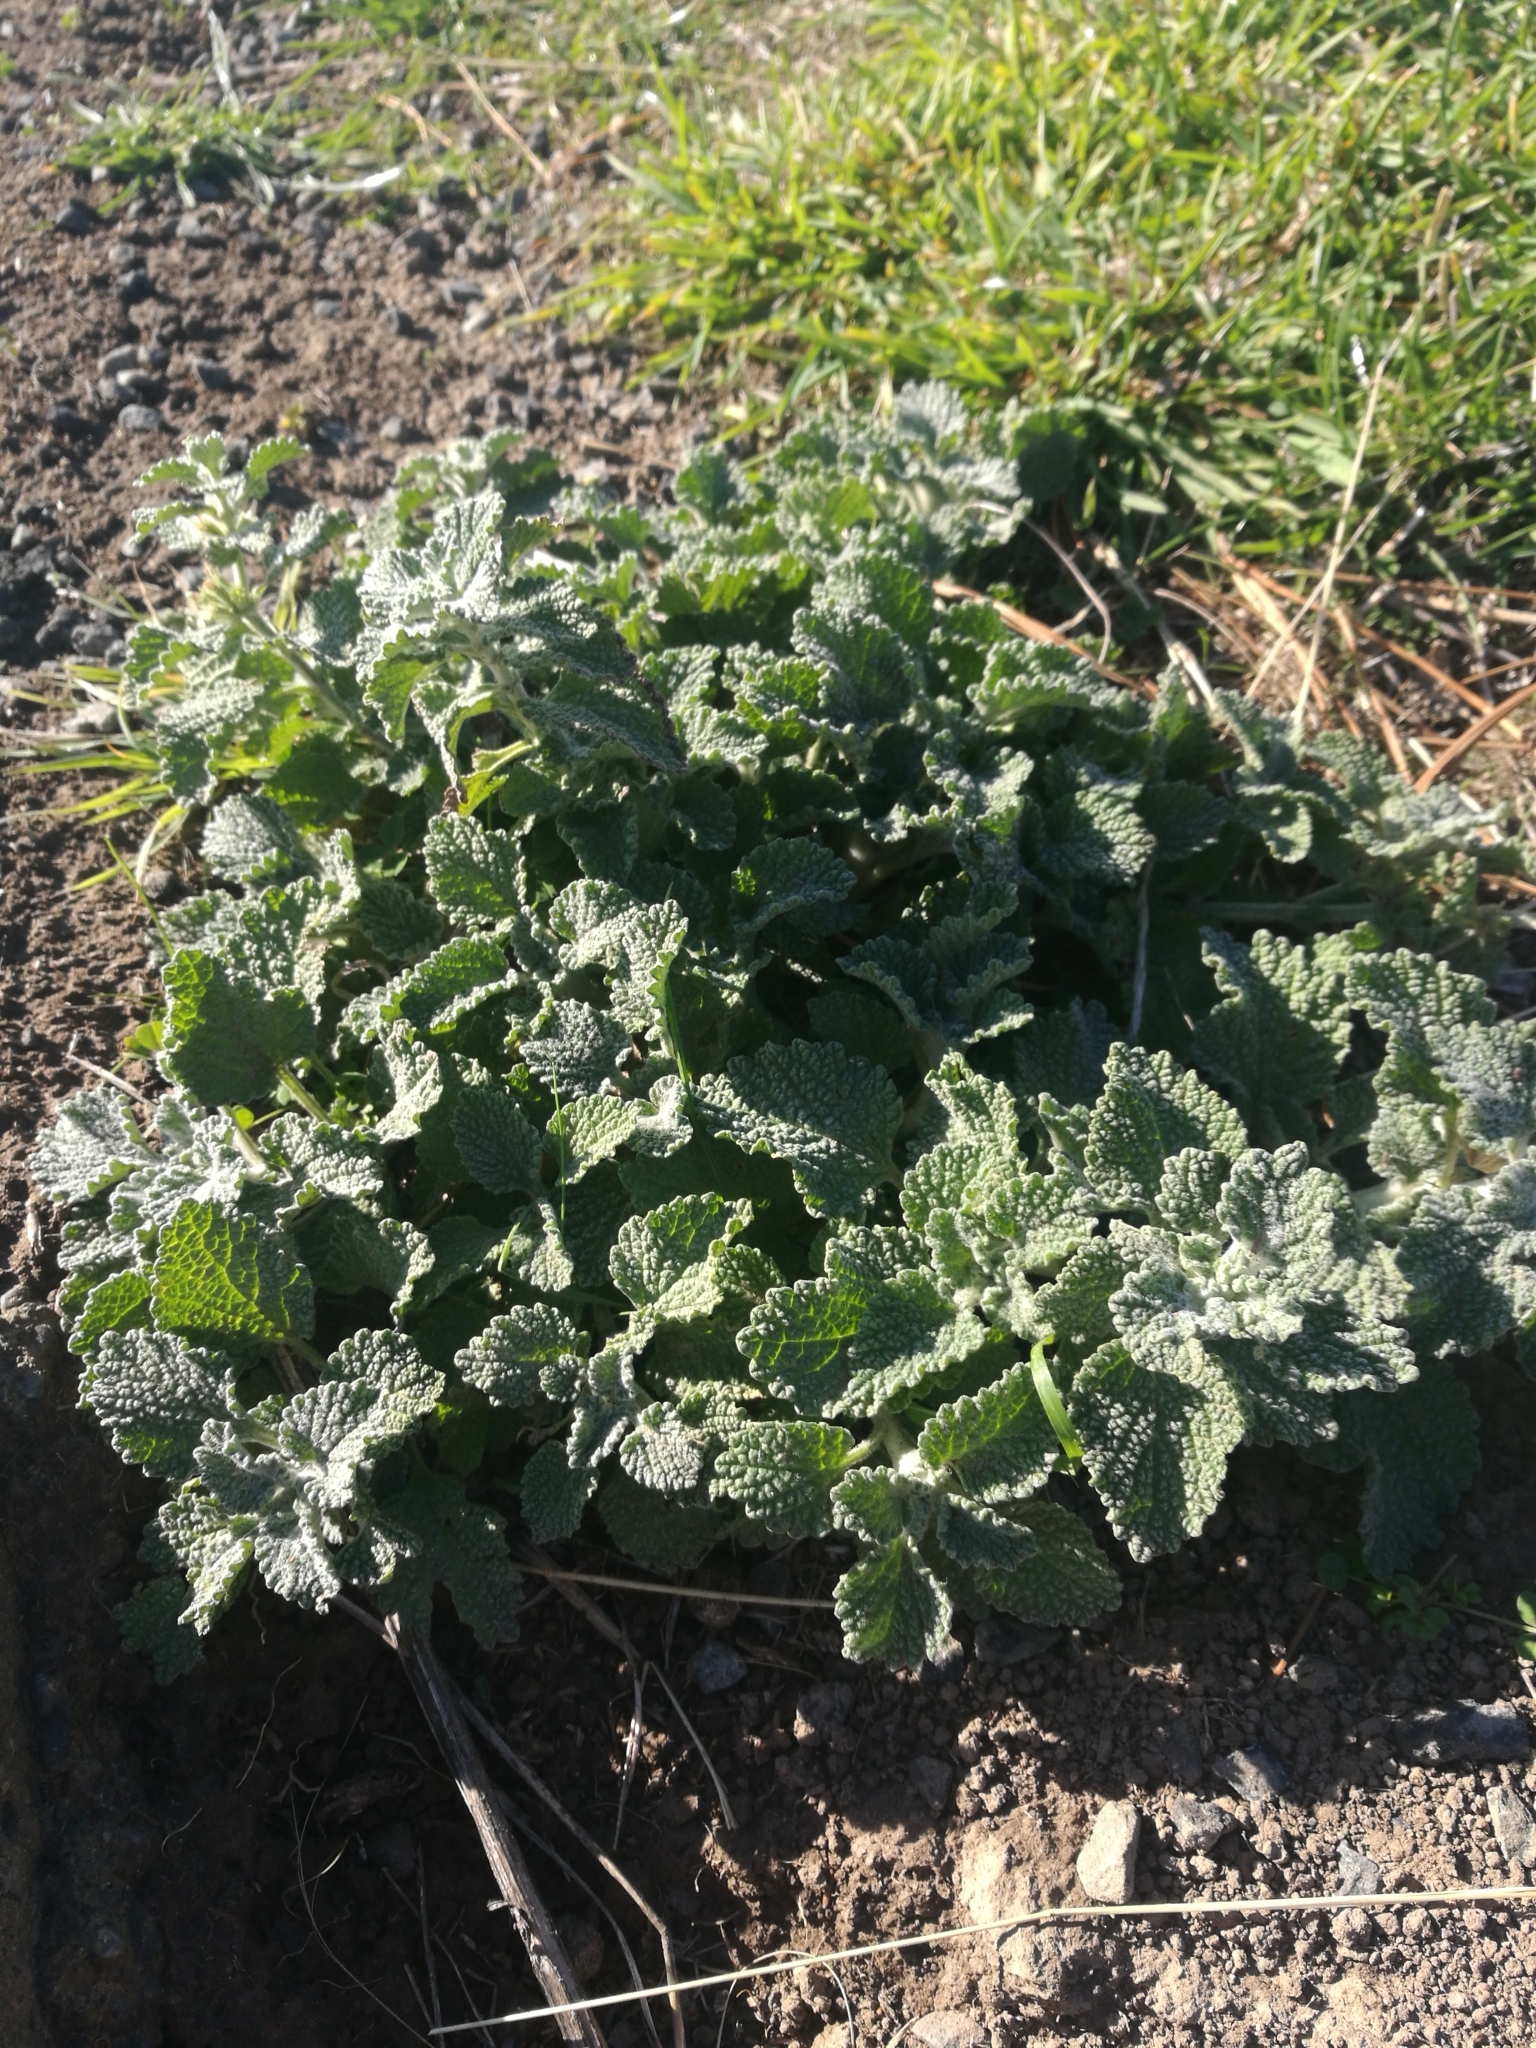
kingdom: Plantae
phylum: Tracheophyta
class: Magnoliopsida
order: Lamiales
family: Lamiaceae
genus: Marrubium
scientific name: Marrubium vulgare
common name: Horehound
